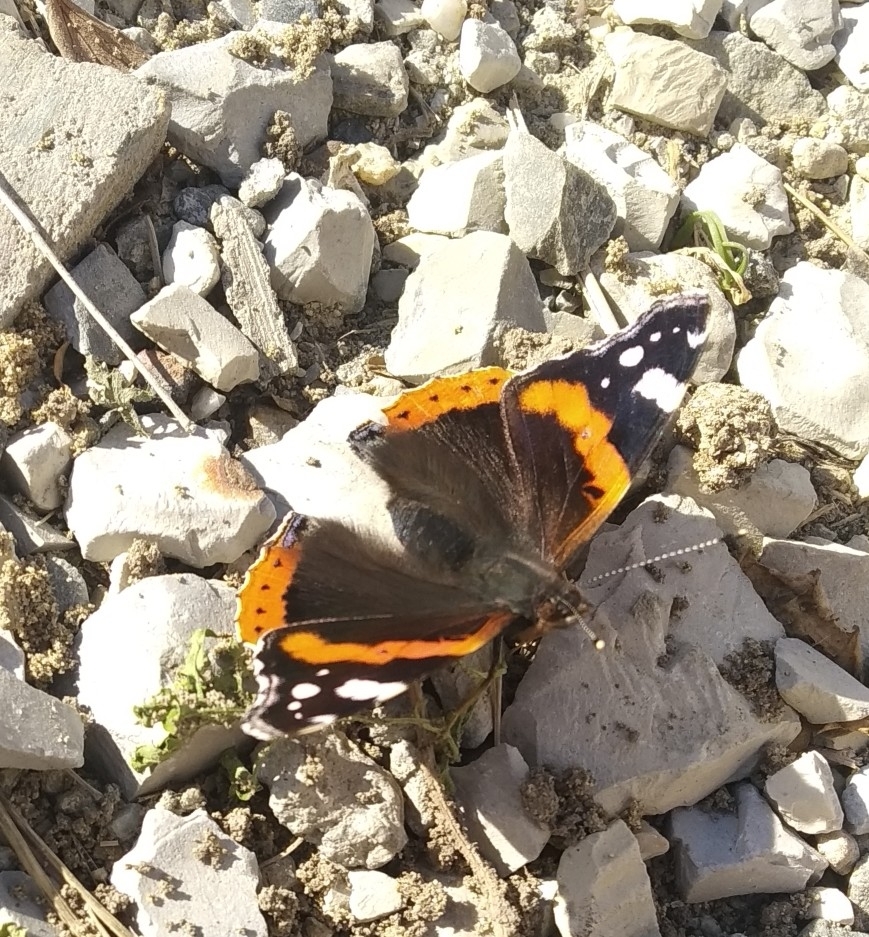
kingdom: Animalia
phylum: Arthropoda
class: Insecta
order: Lepidoptera
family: Nymphalidae
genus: Vanessa
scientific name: Vanessa atalanta
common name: Red admiral
